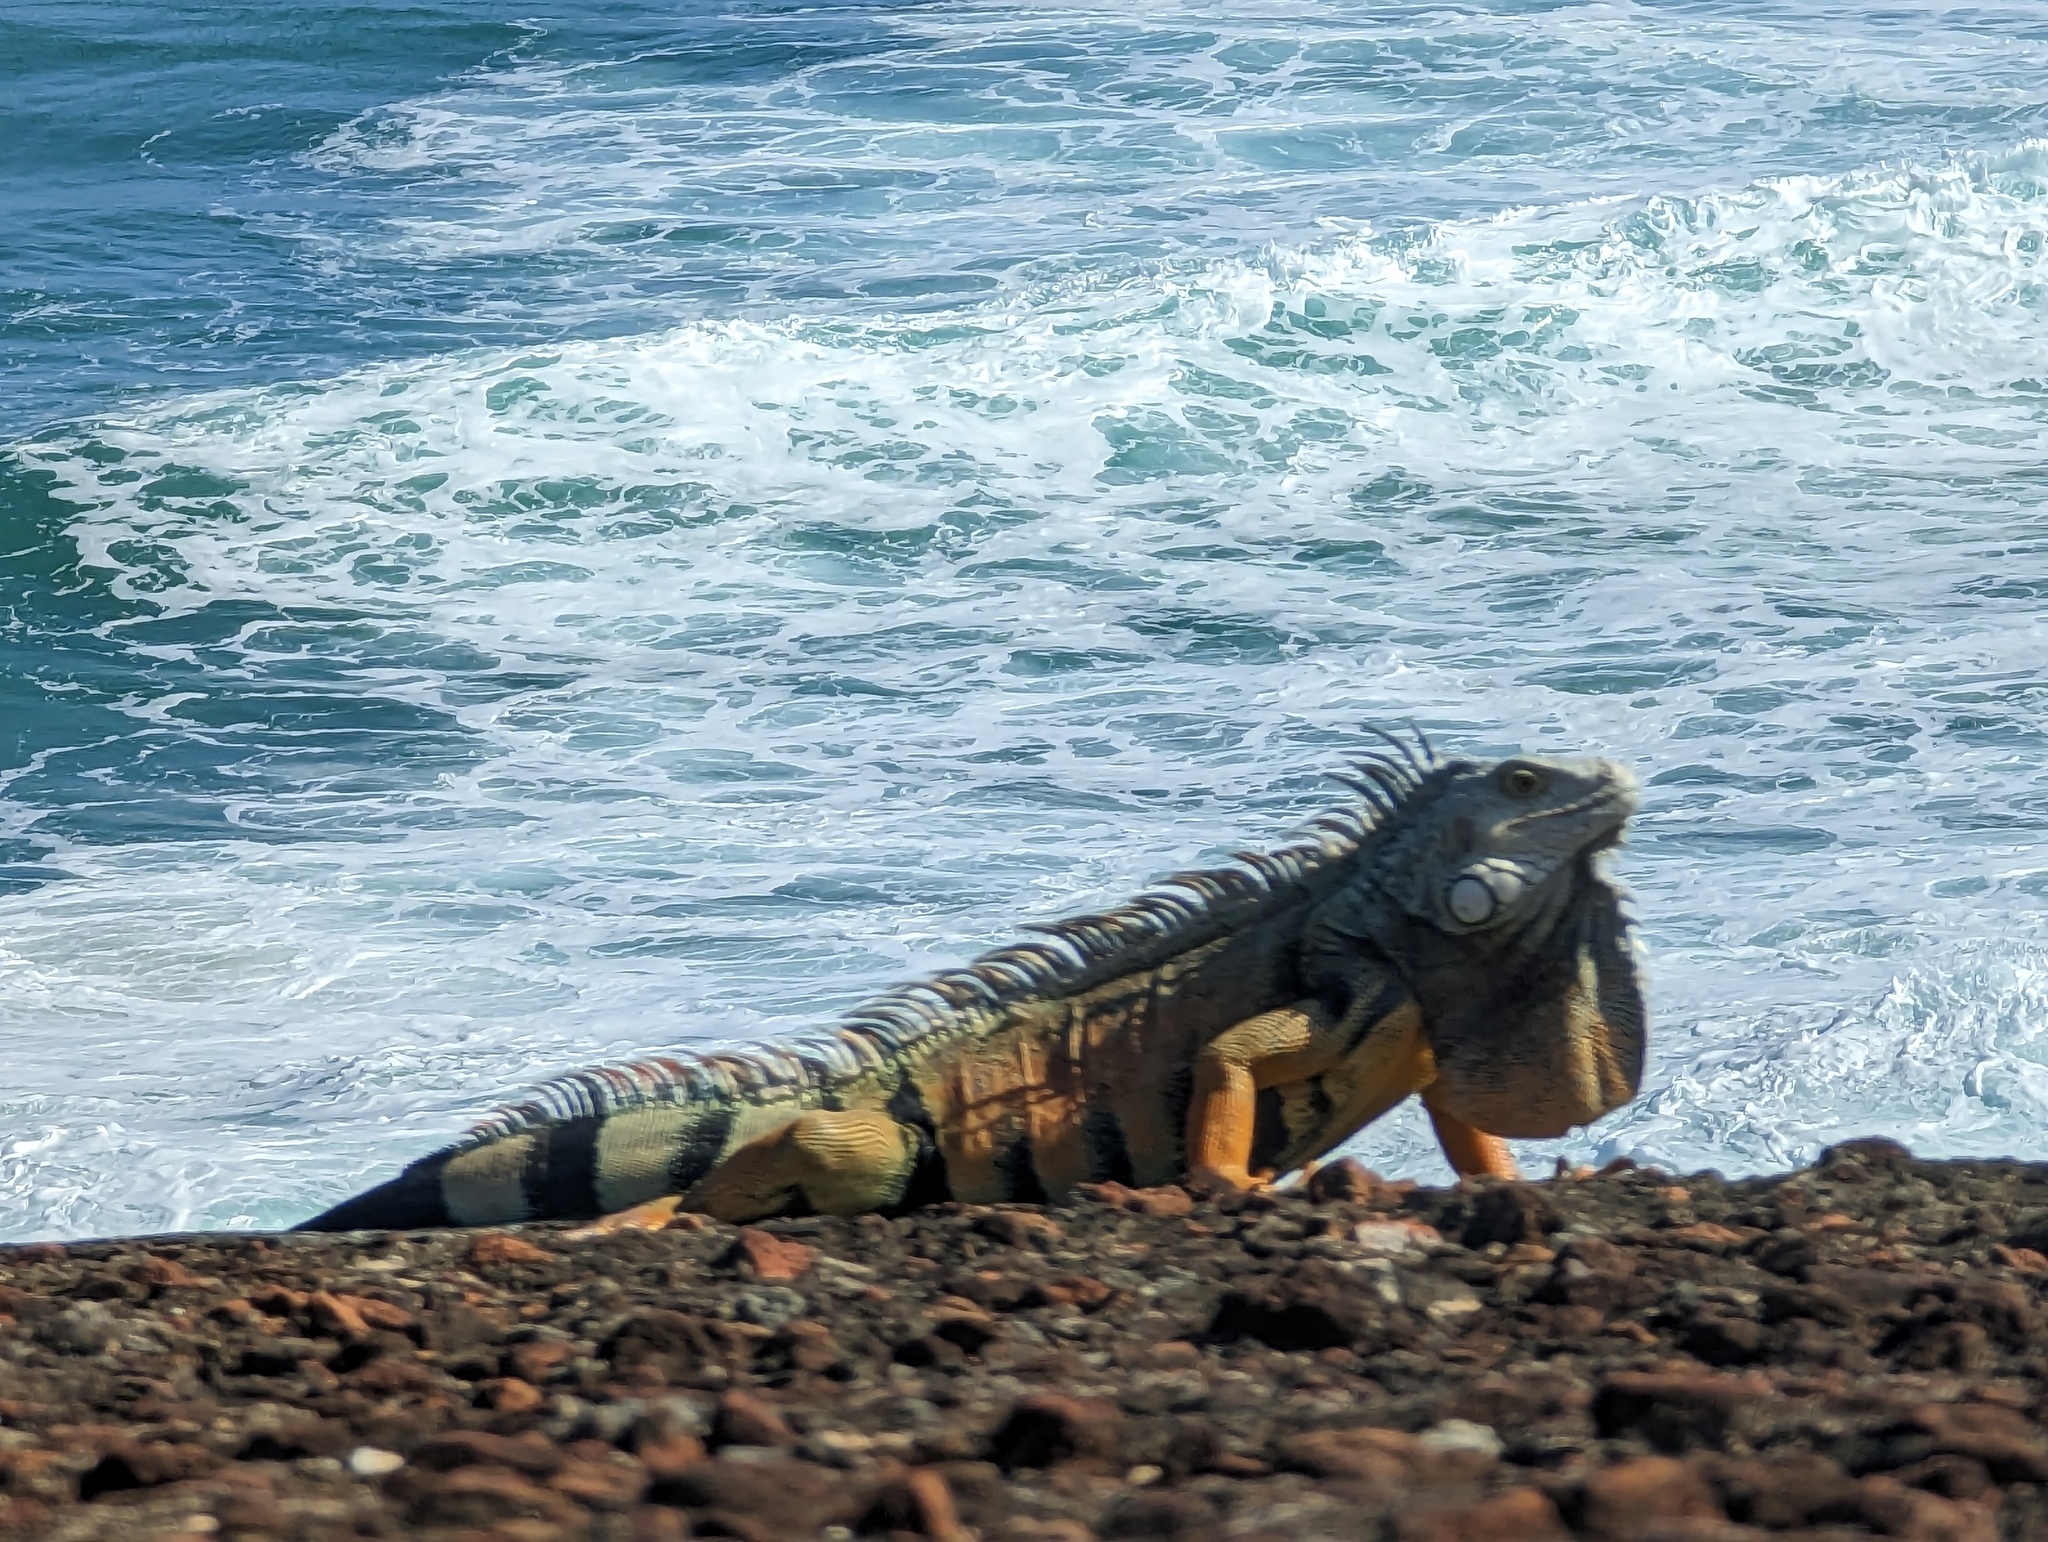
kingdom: Animalia
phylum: Chordata
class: Squamata
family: Iguanidae
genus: Iguana
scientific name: Iguana iguana
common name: Green iguana
